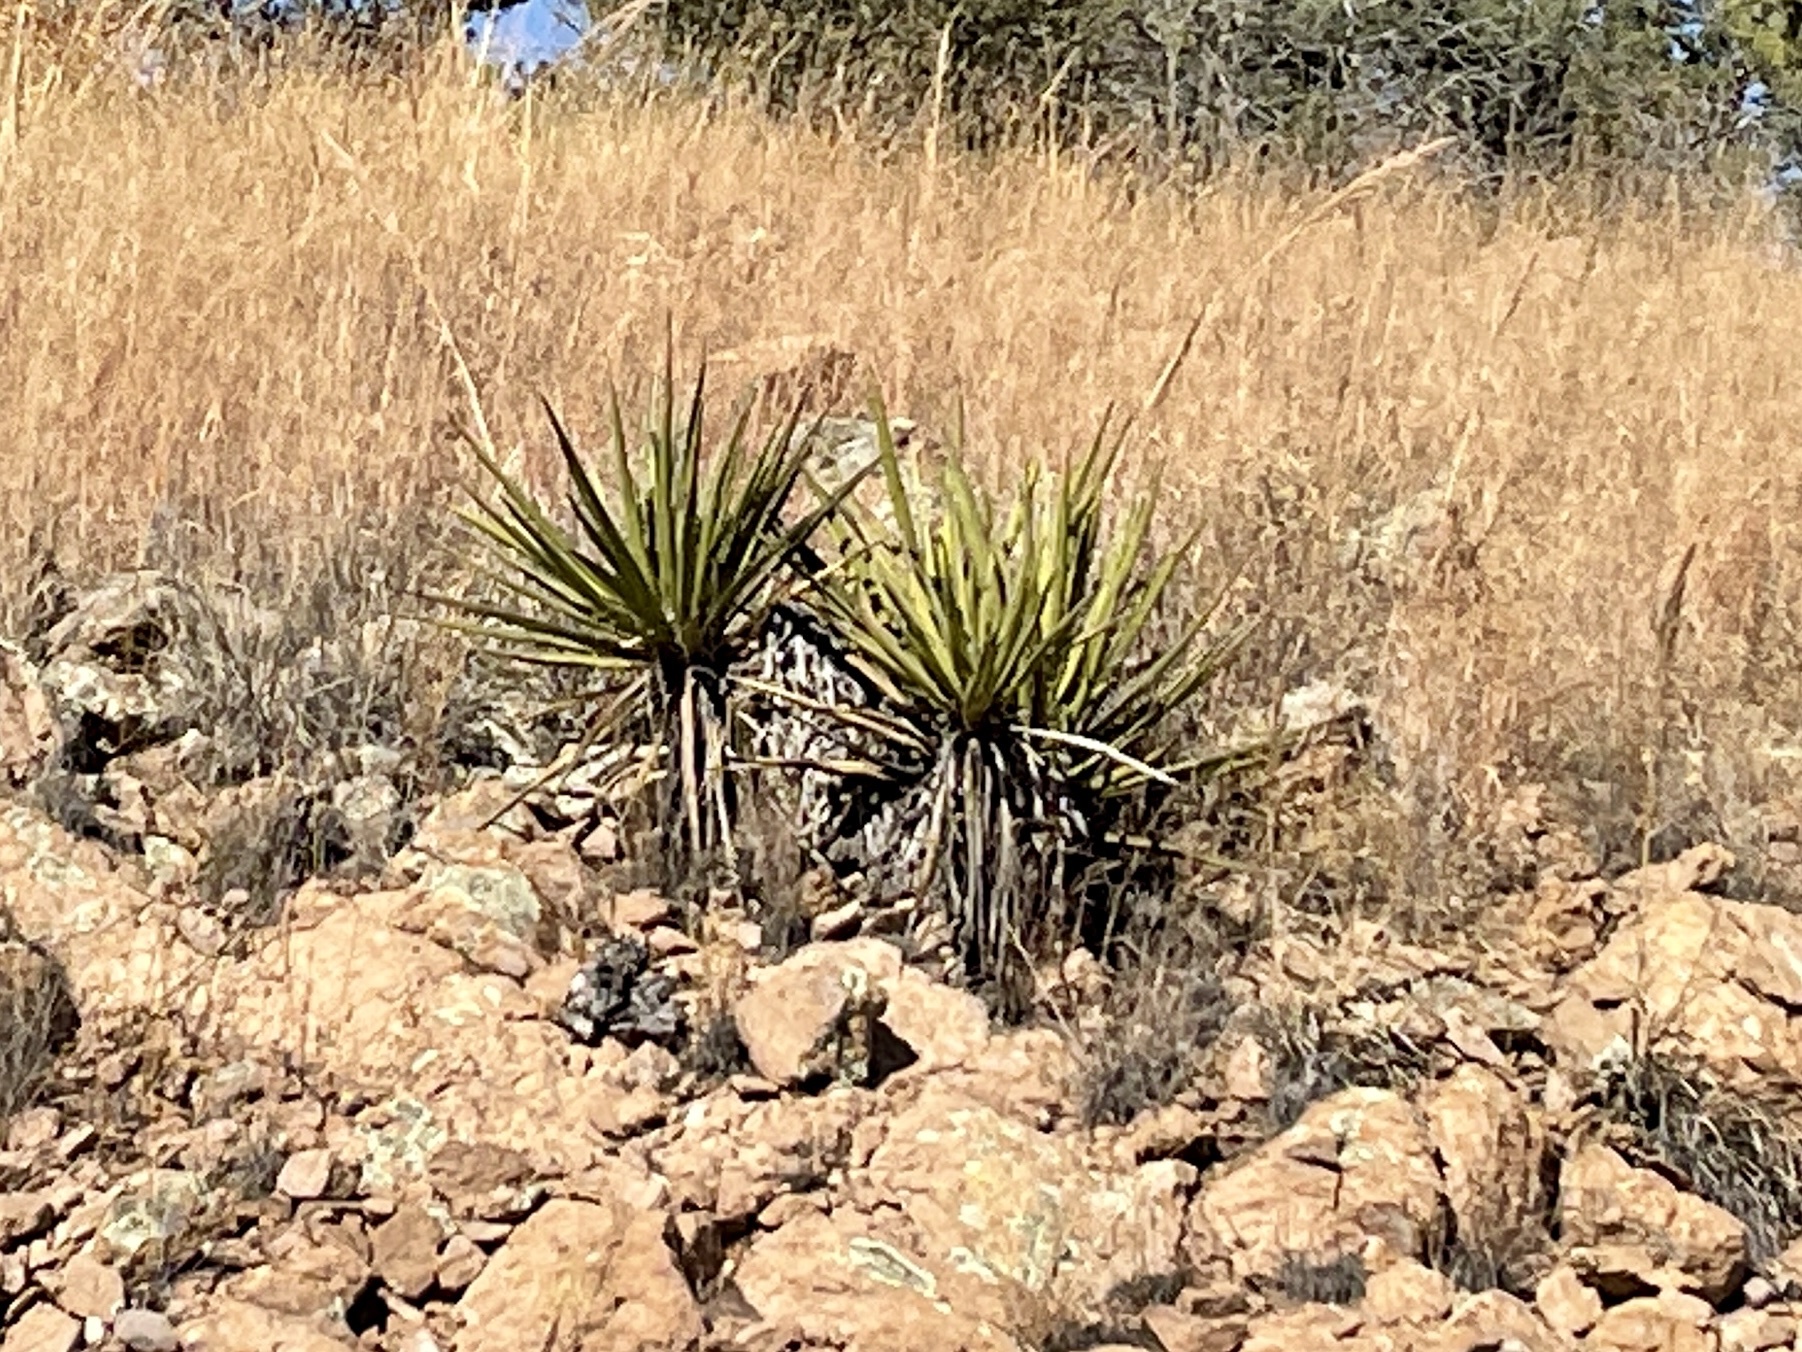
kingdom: Plantae
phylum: Tracheophyta
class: Liliopsida
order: Asparagales
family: Asparagaceae
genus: Yucca
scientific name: Yucca baccata
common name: Banana yucca
